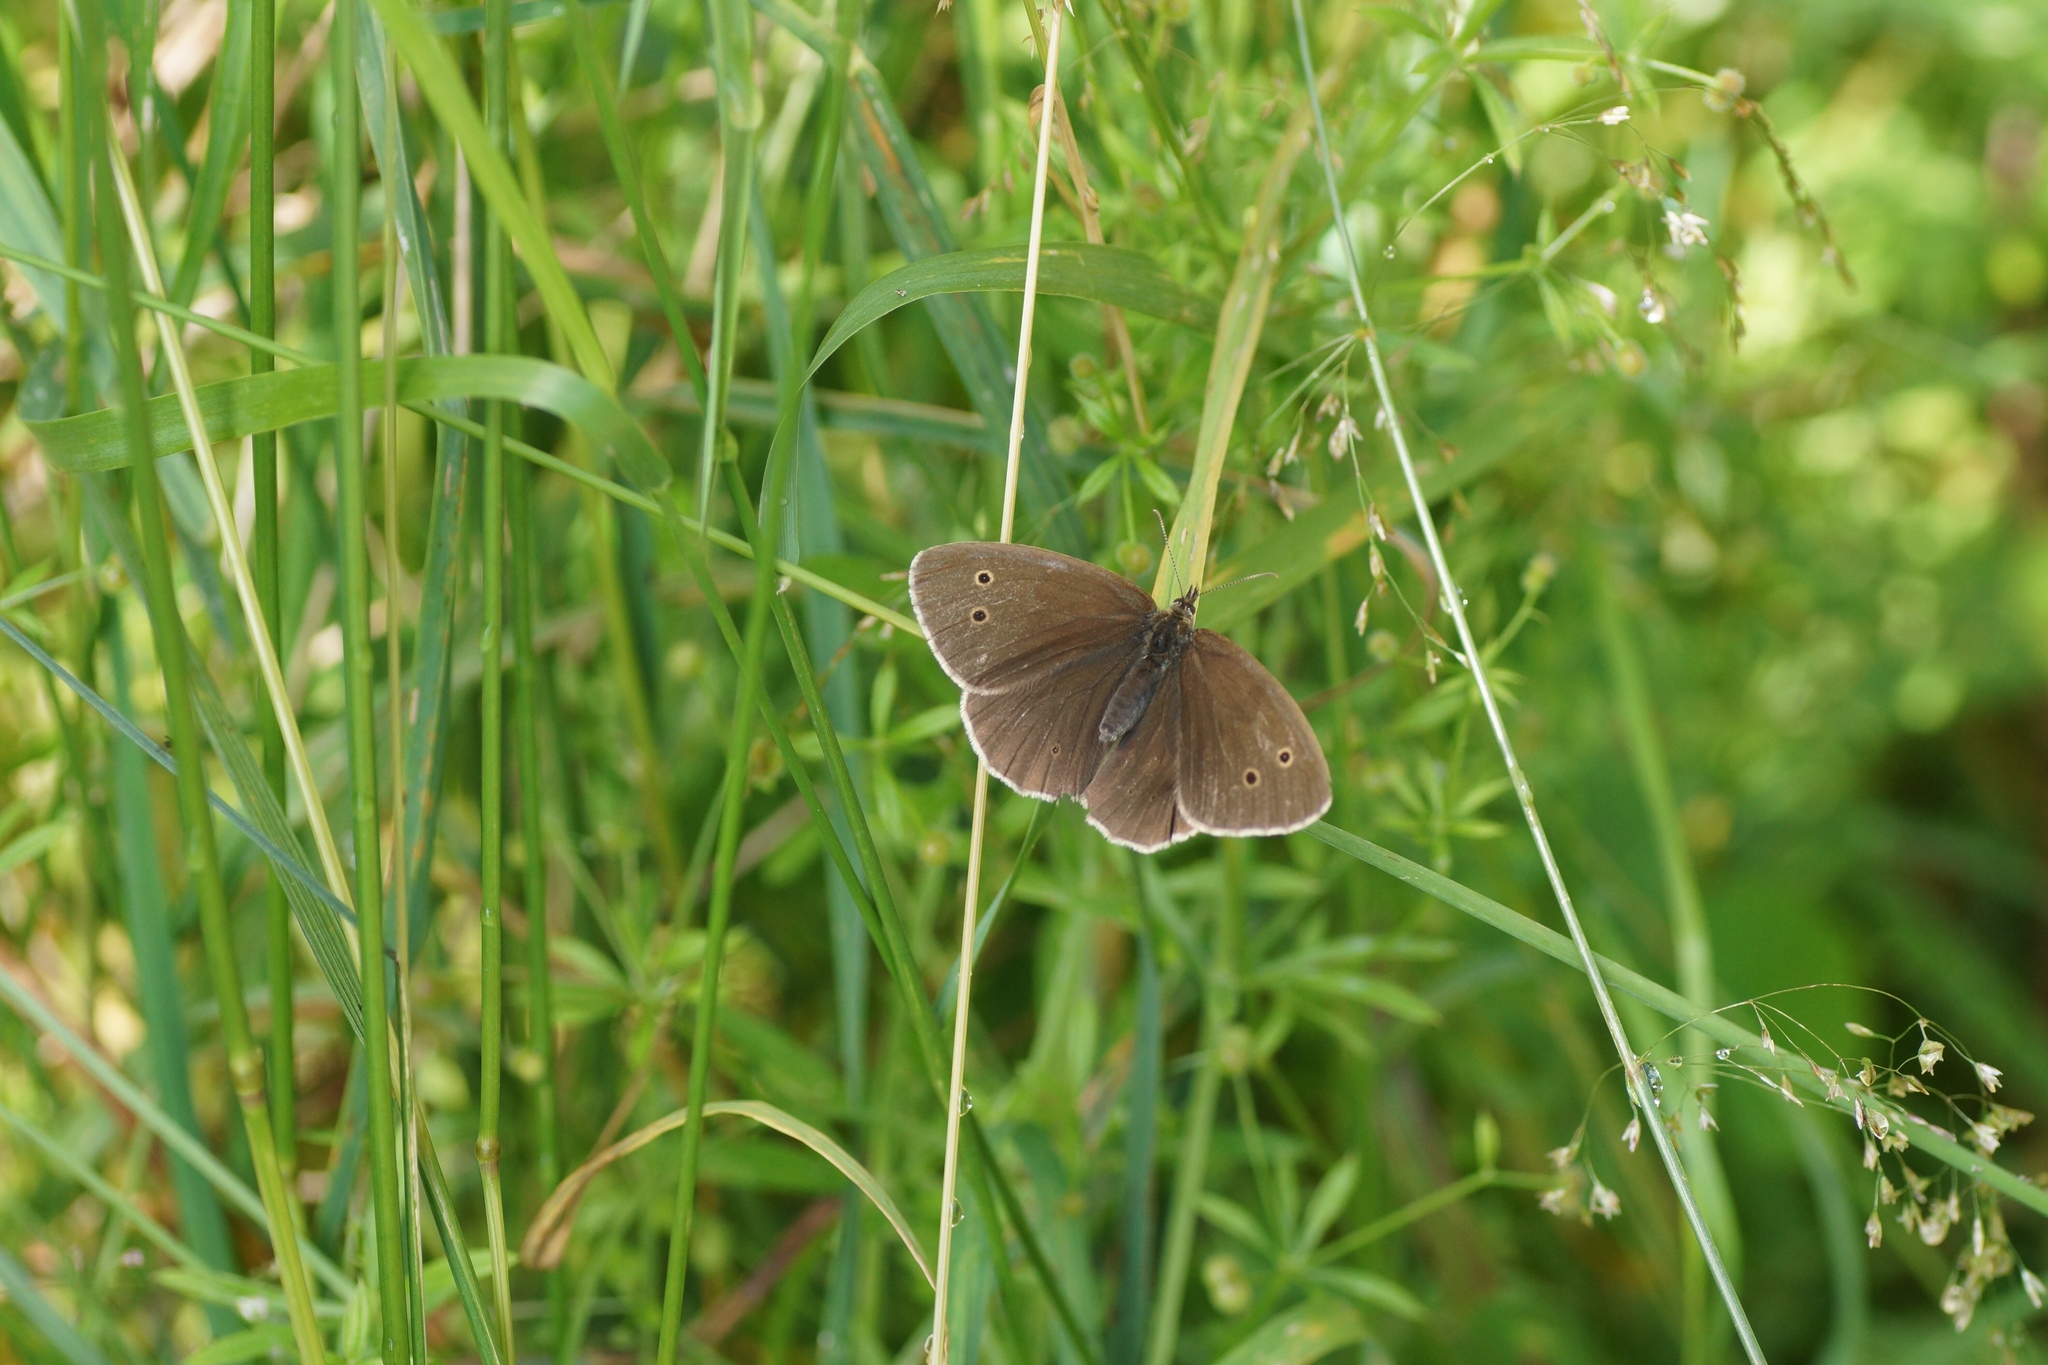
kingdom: Animalia
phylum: Arthropoda
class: Insecta
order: Lepidoptera
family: Nymphalidae
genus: Aphantopus
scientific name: Aphantopus hyperantus
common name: Ringlet
